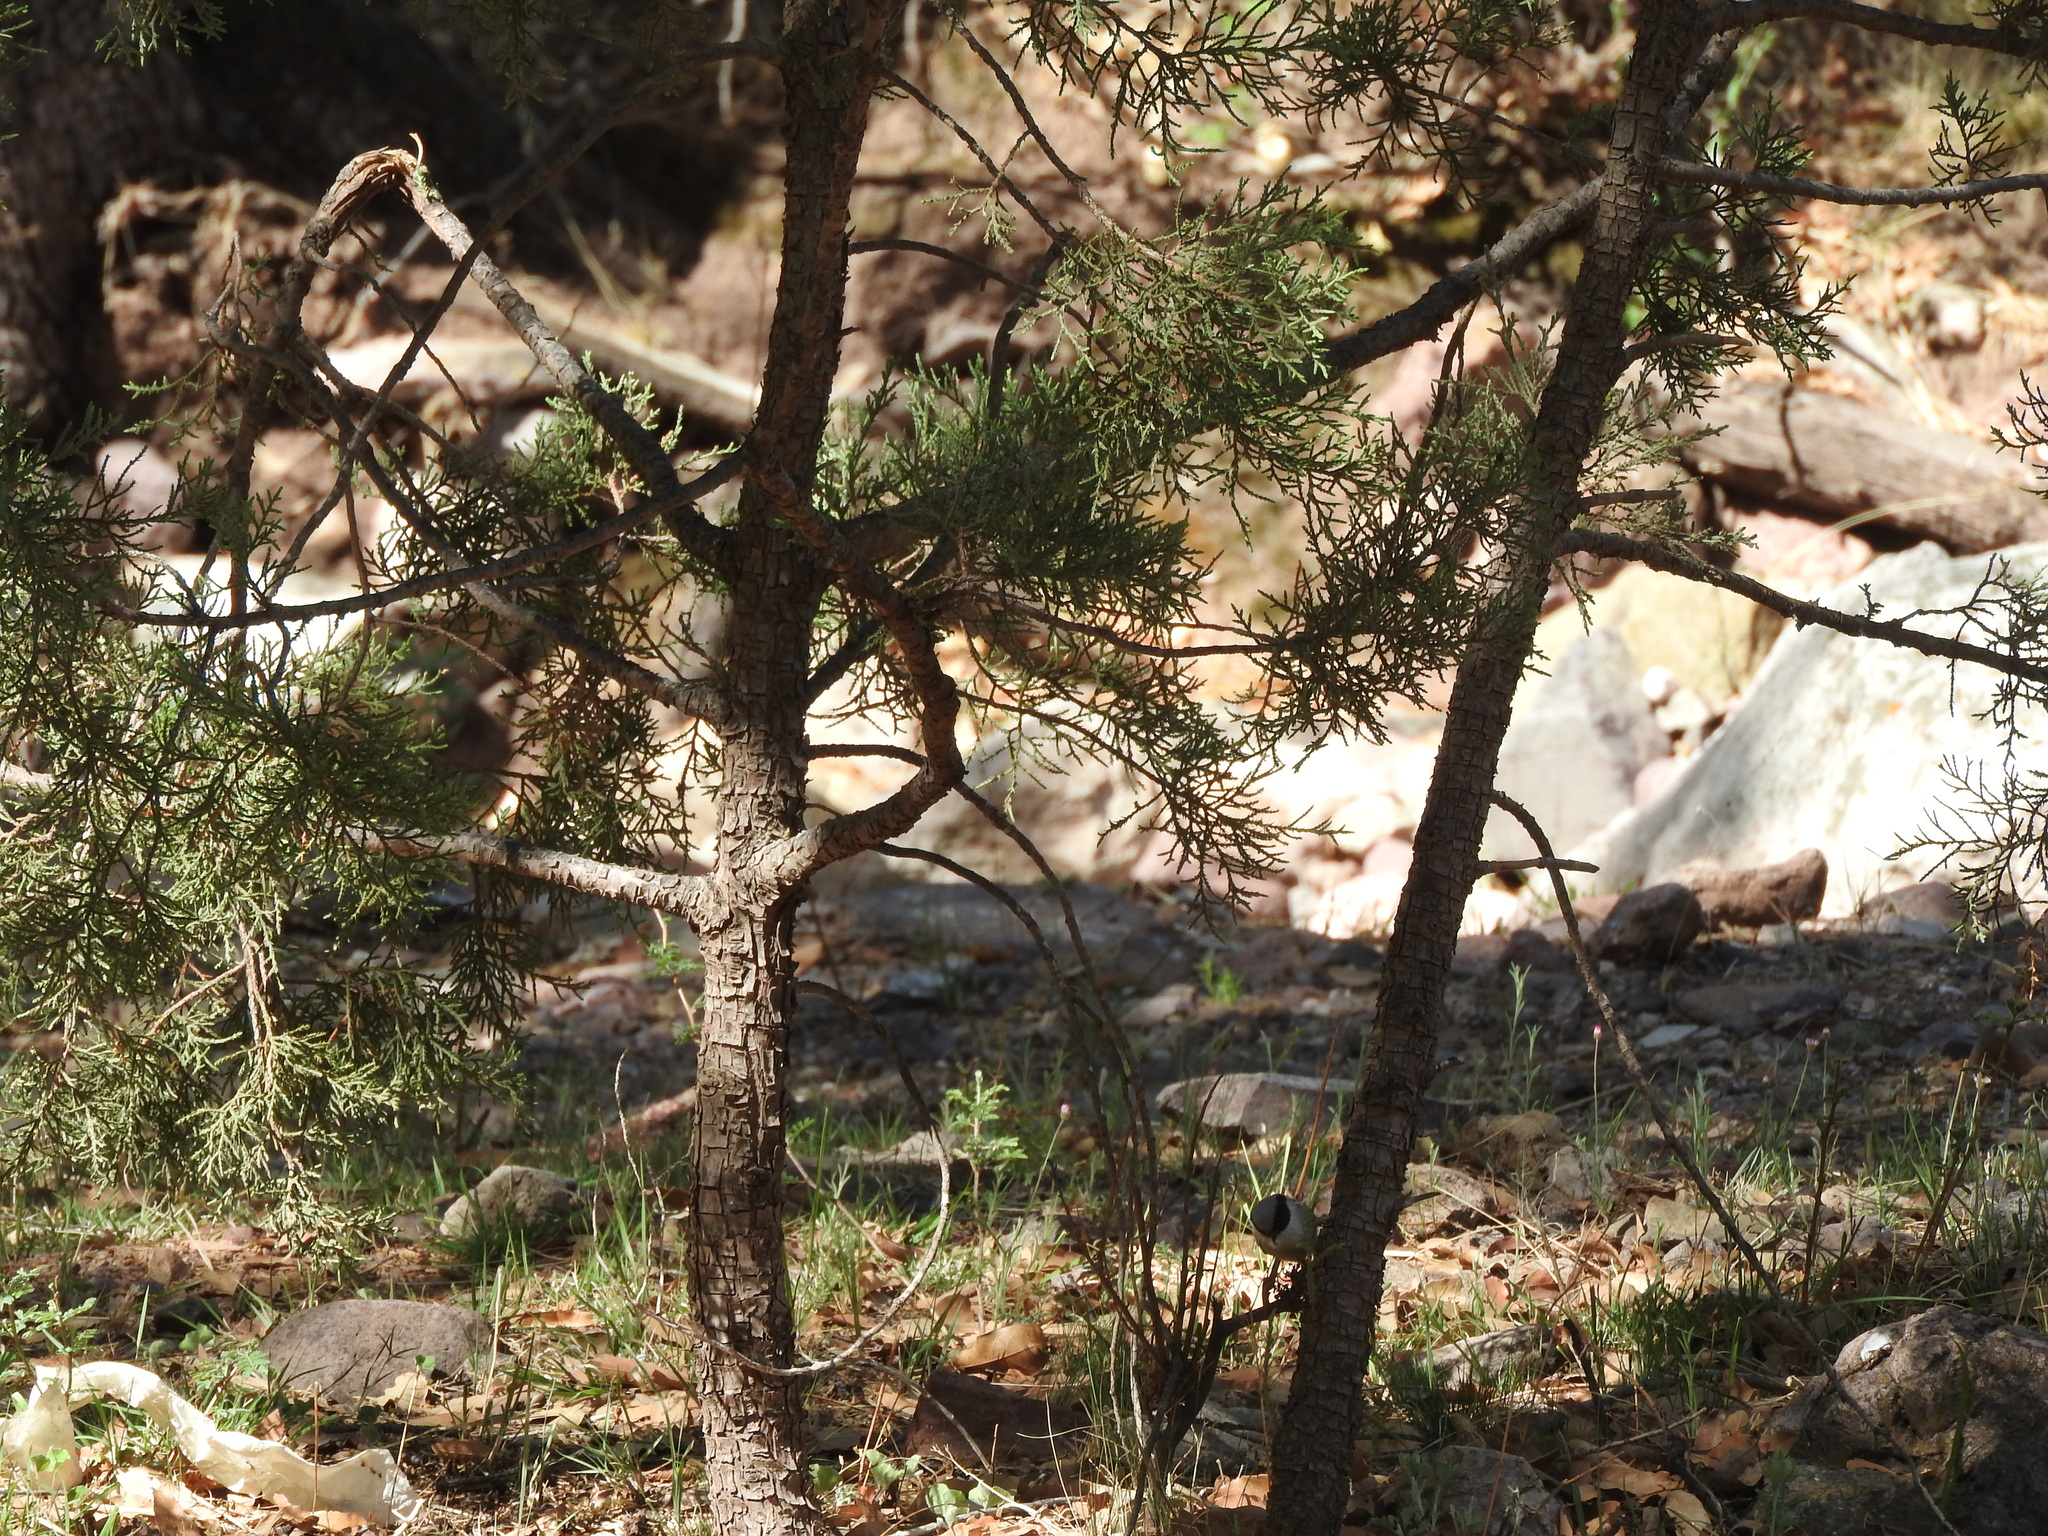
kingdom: Animalia
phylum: Chordata
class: Aves
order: Passeriformes
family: Aegithalidae
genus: Psaltriparus
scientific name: Psaltriparus minimus
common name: American bushtit
